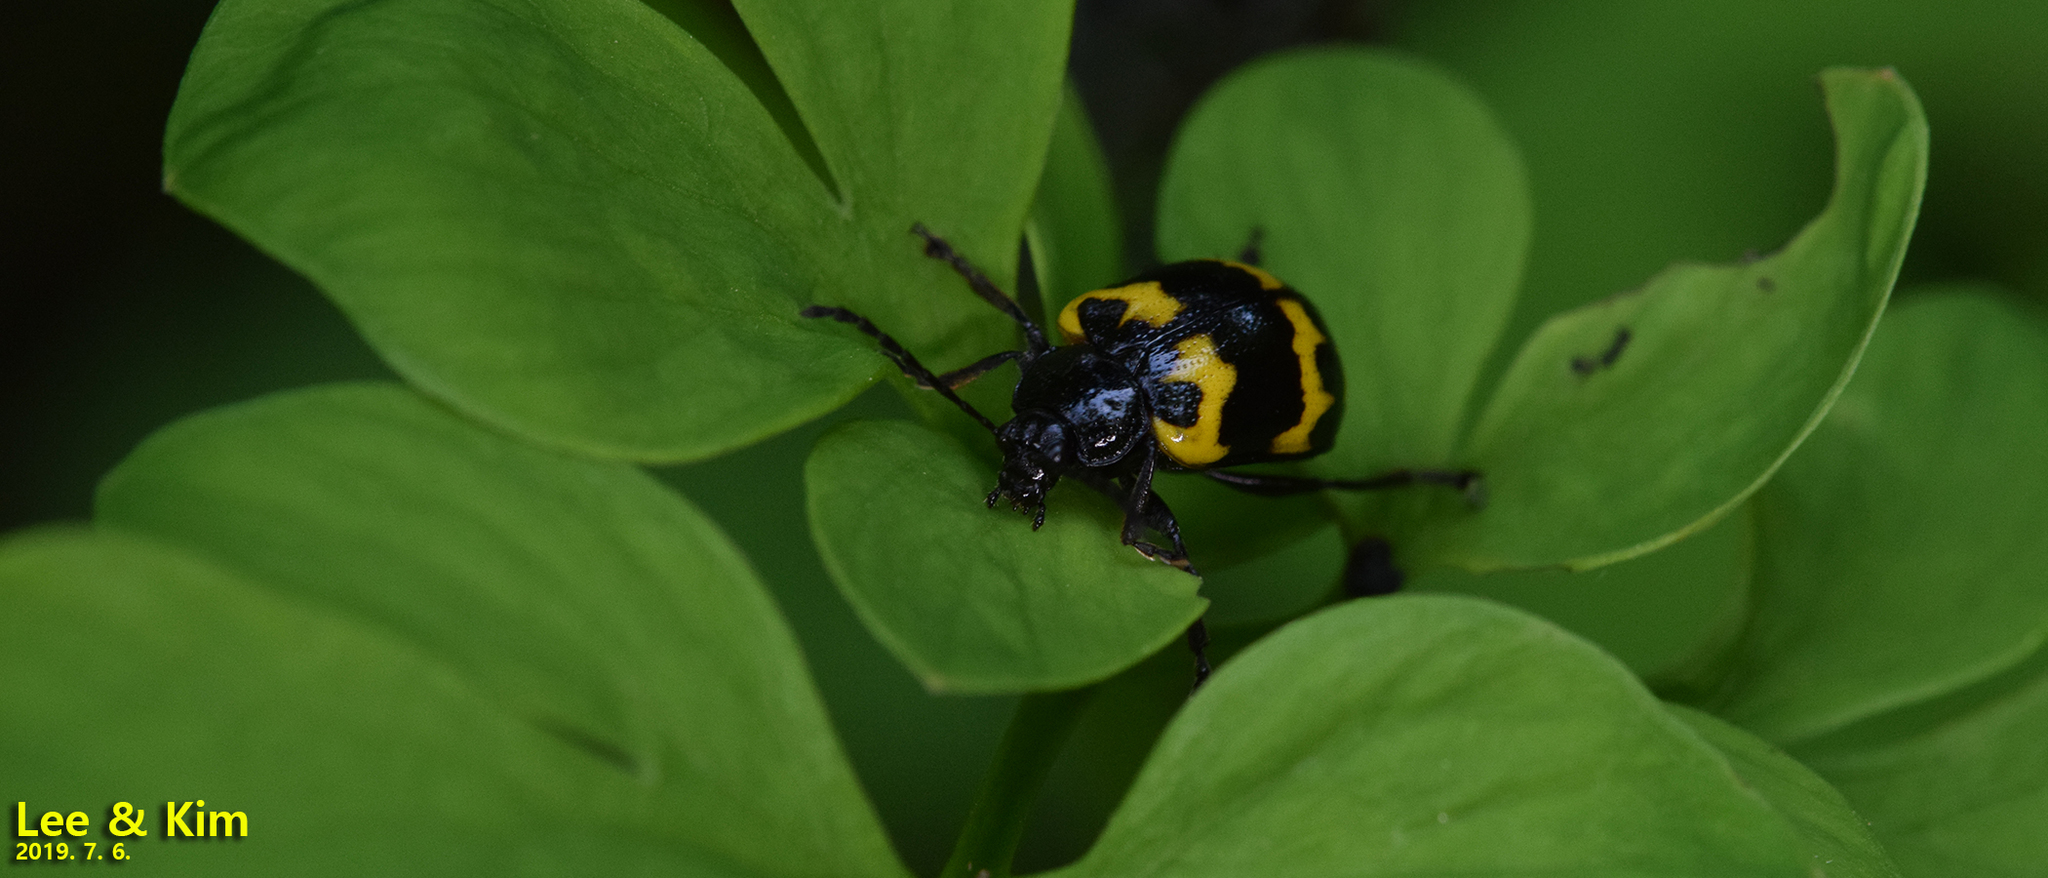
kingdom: Animalia
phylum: Arthropoda
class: Insecta
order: Coleoptera
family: Chrysomelidae
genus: Gallerucida
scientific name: Gallerucida bifasciata
